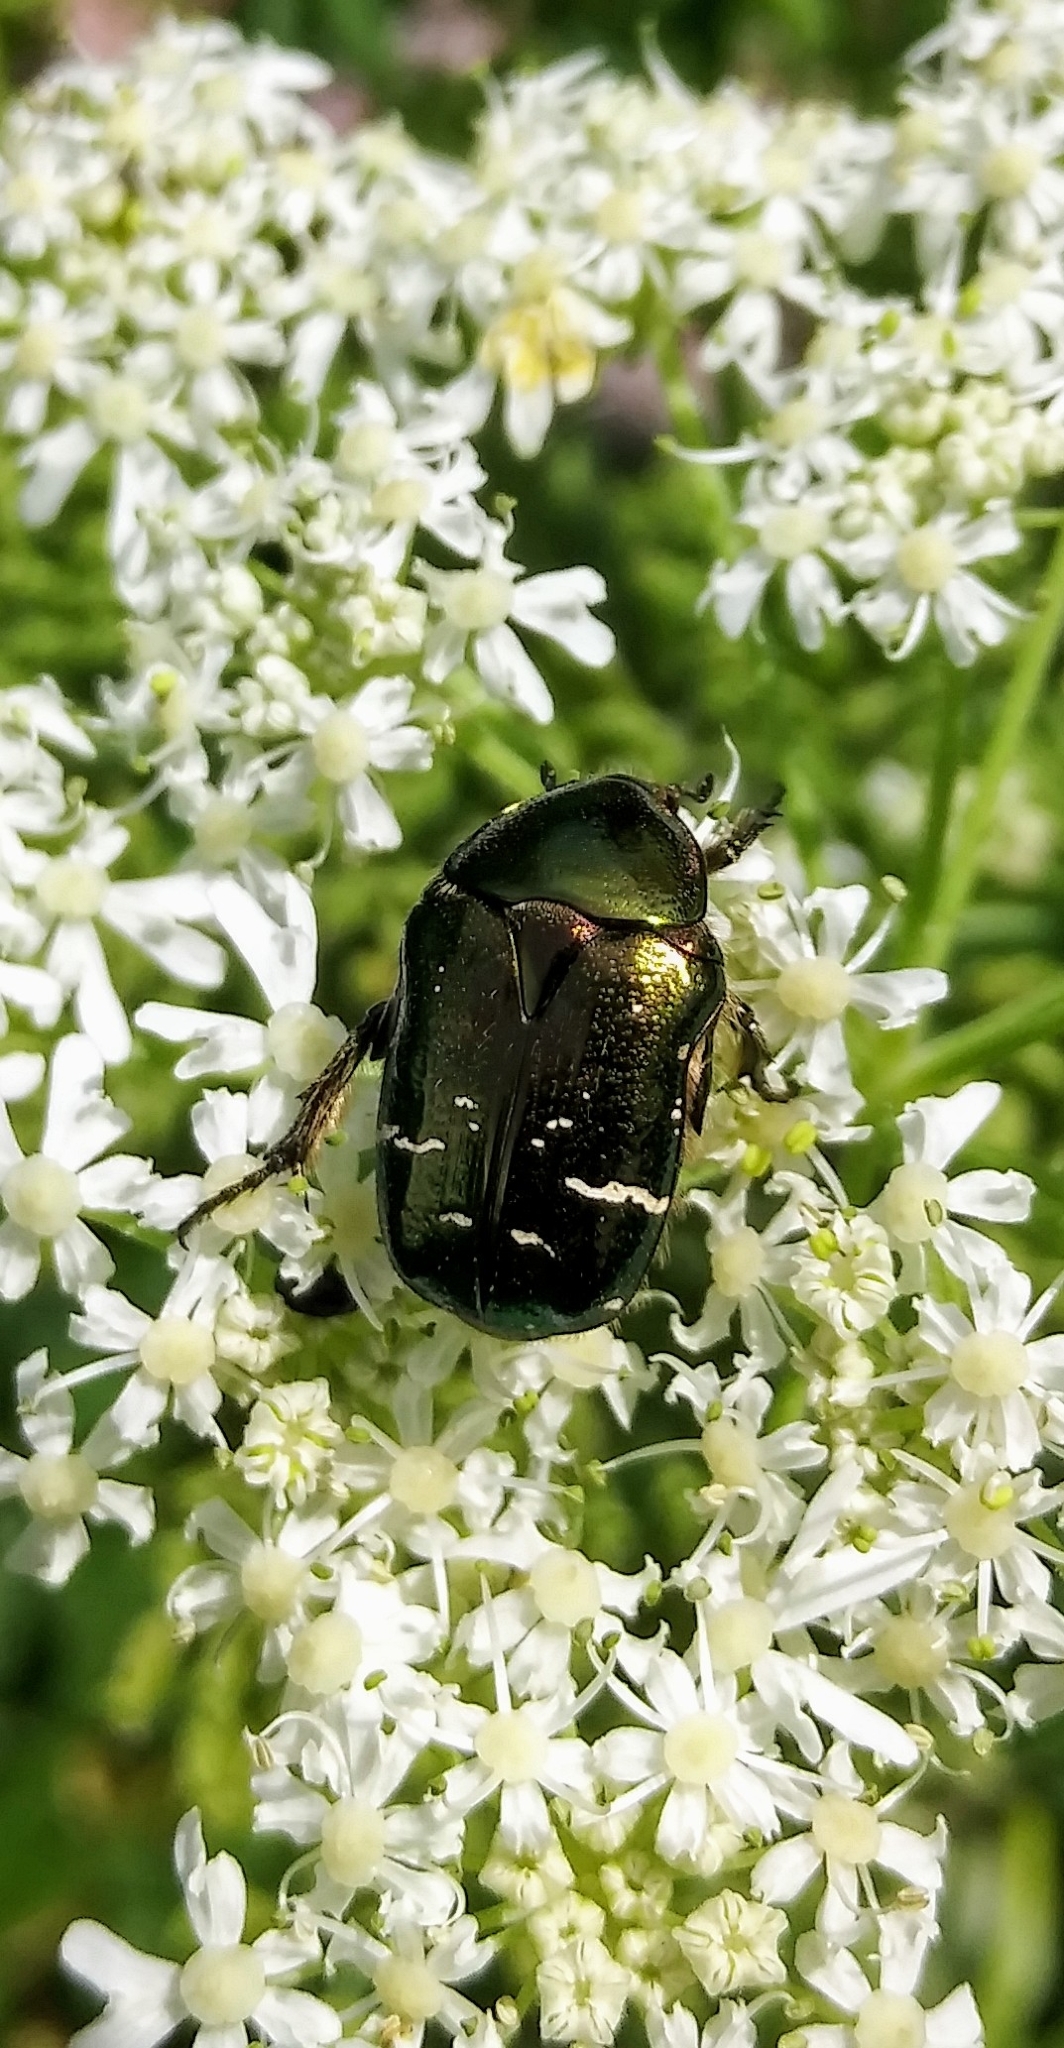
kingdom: Animalia
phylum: Arthropoda
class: Insecta
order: Coleoptera
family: Scarabaeidae
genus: Cetonia
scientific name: Cetonia aurata
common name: Rose chafer
